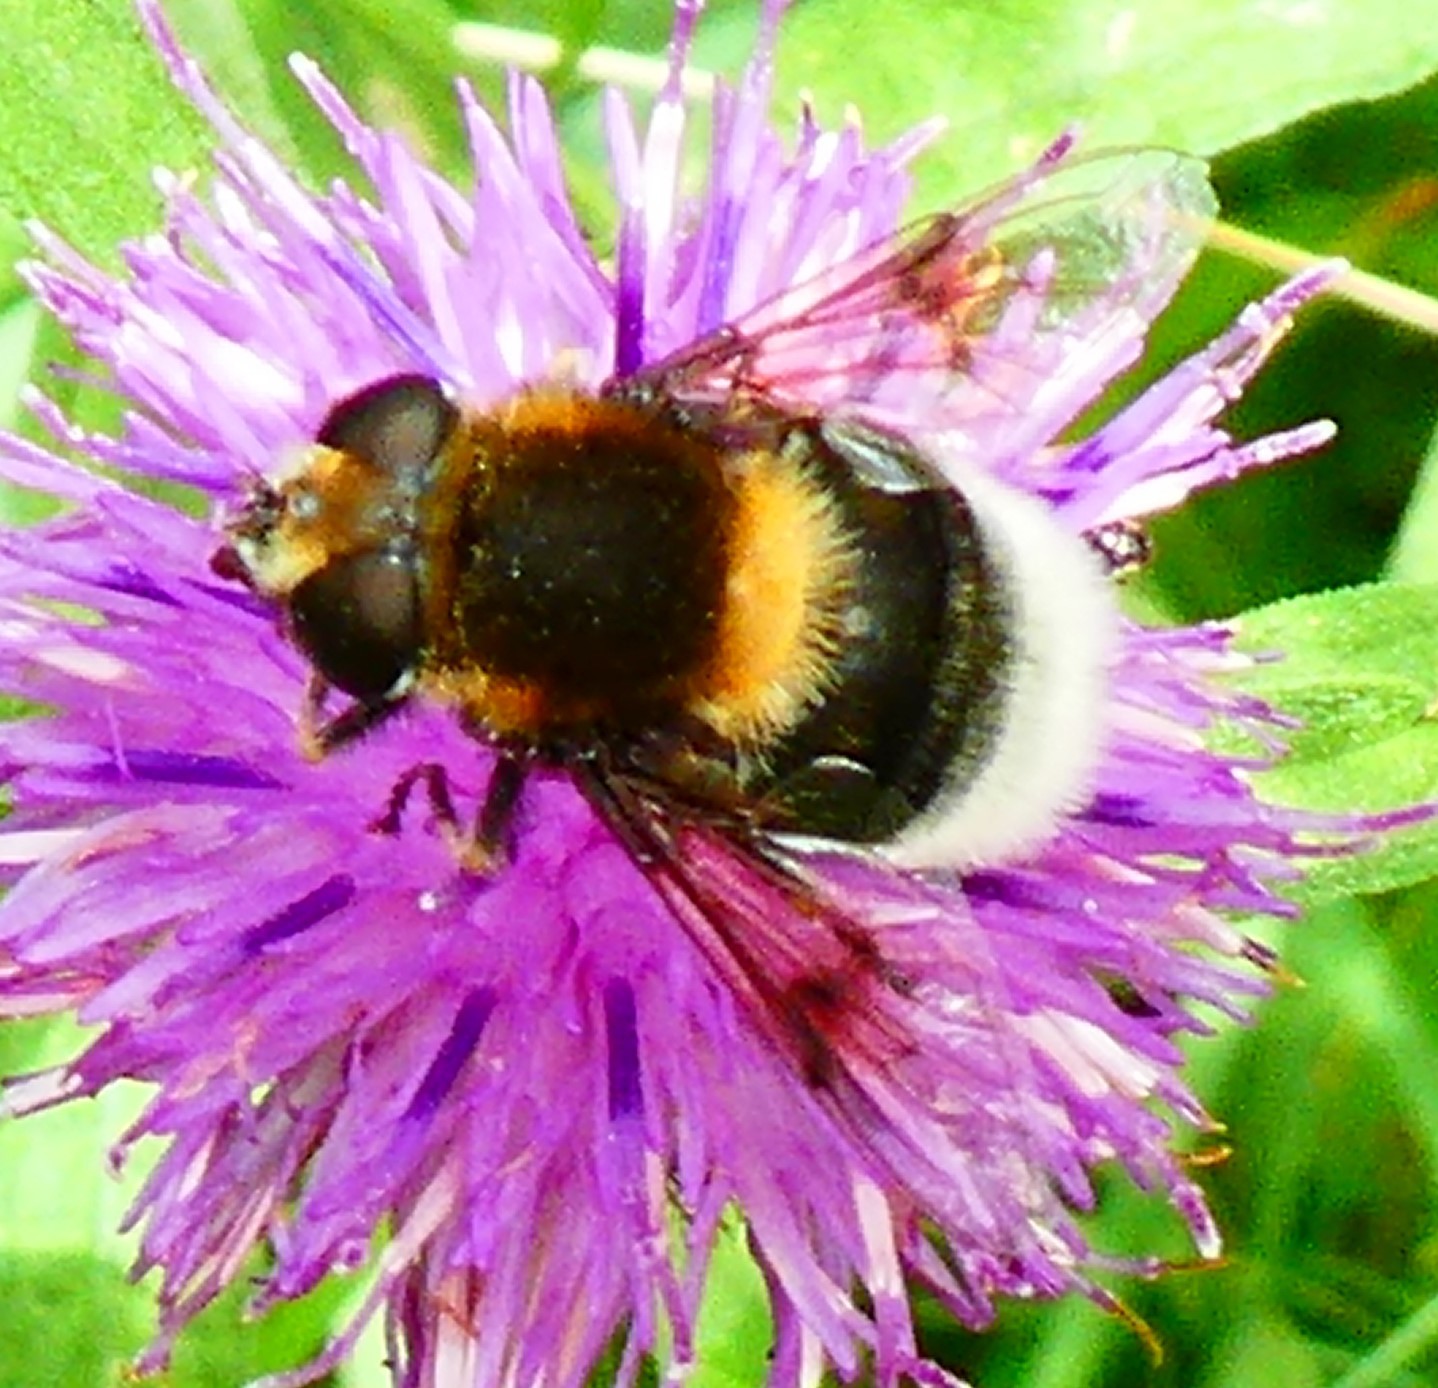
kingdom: Animalia
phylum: Arthropoda
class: Insecta
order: Diptera
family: Syrphidae
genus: Eristalis
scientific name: Eristalis intricaria
